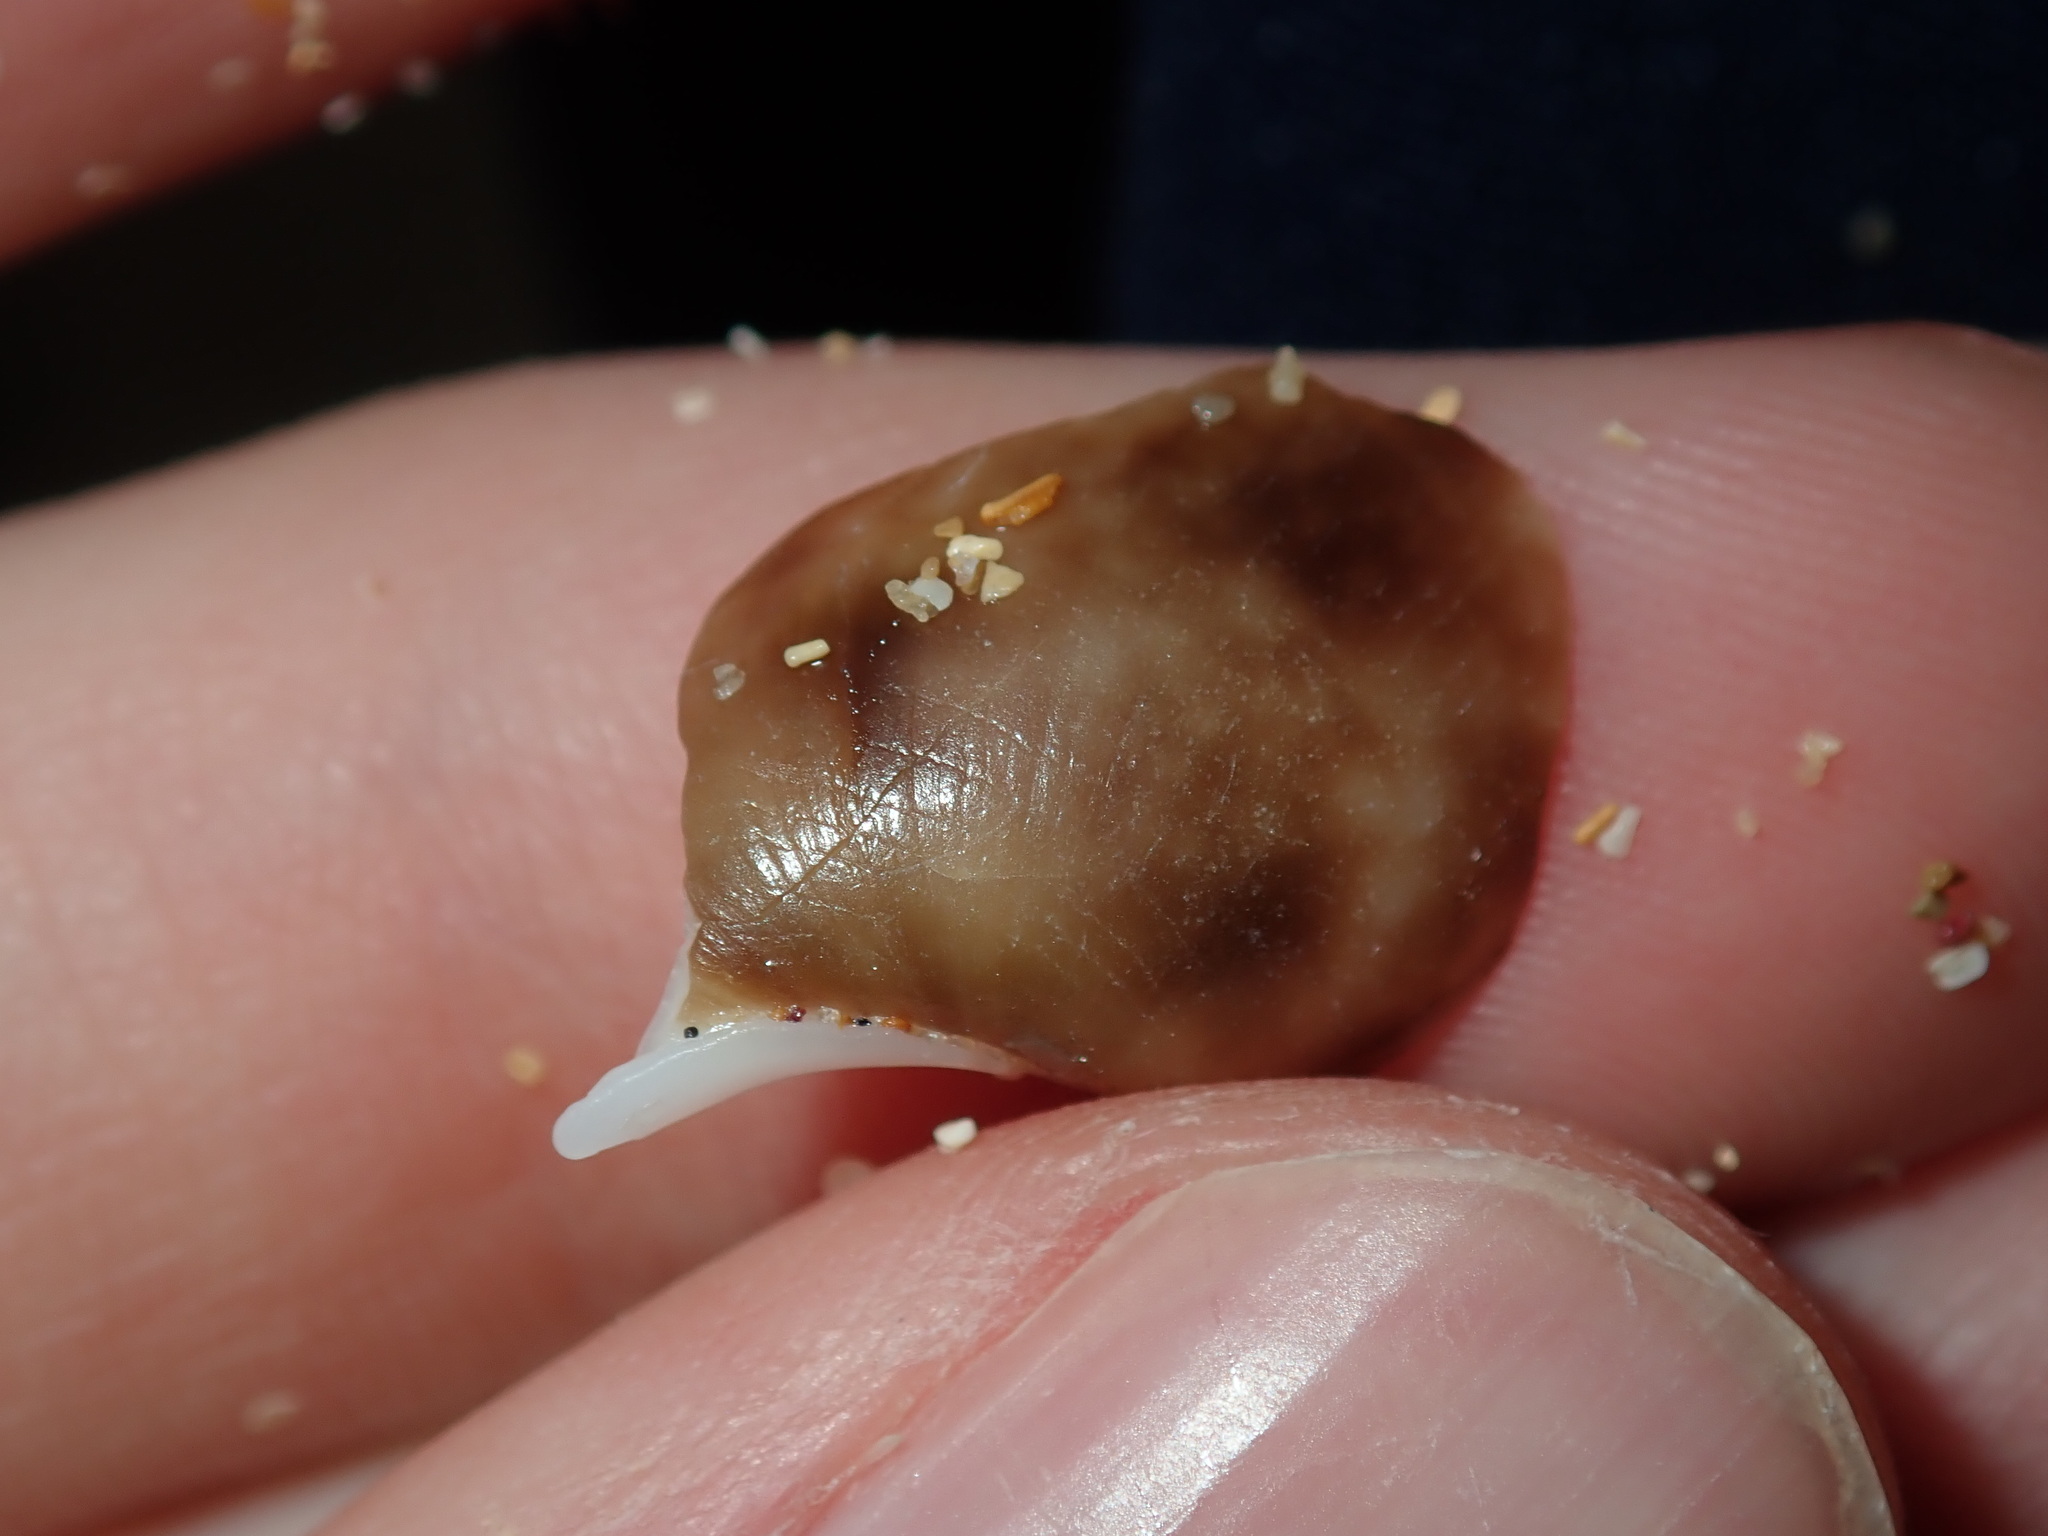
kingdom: Animalia
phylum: Mollusca
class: Gastropoda
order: Cephalaspidea
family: Bullidae
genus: Bulla
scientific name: Bulla quoyii
